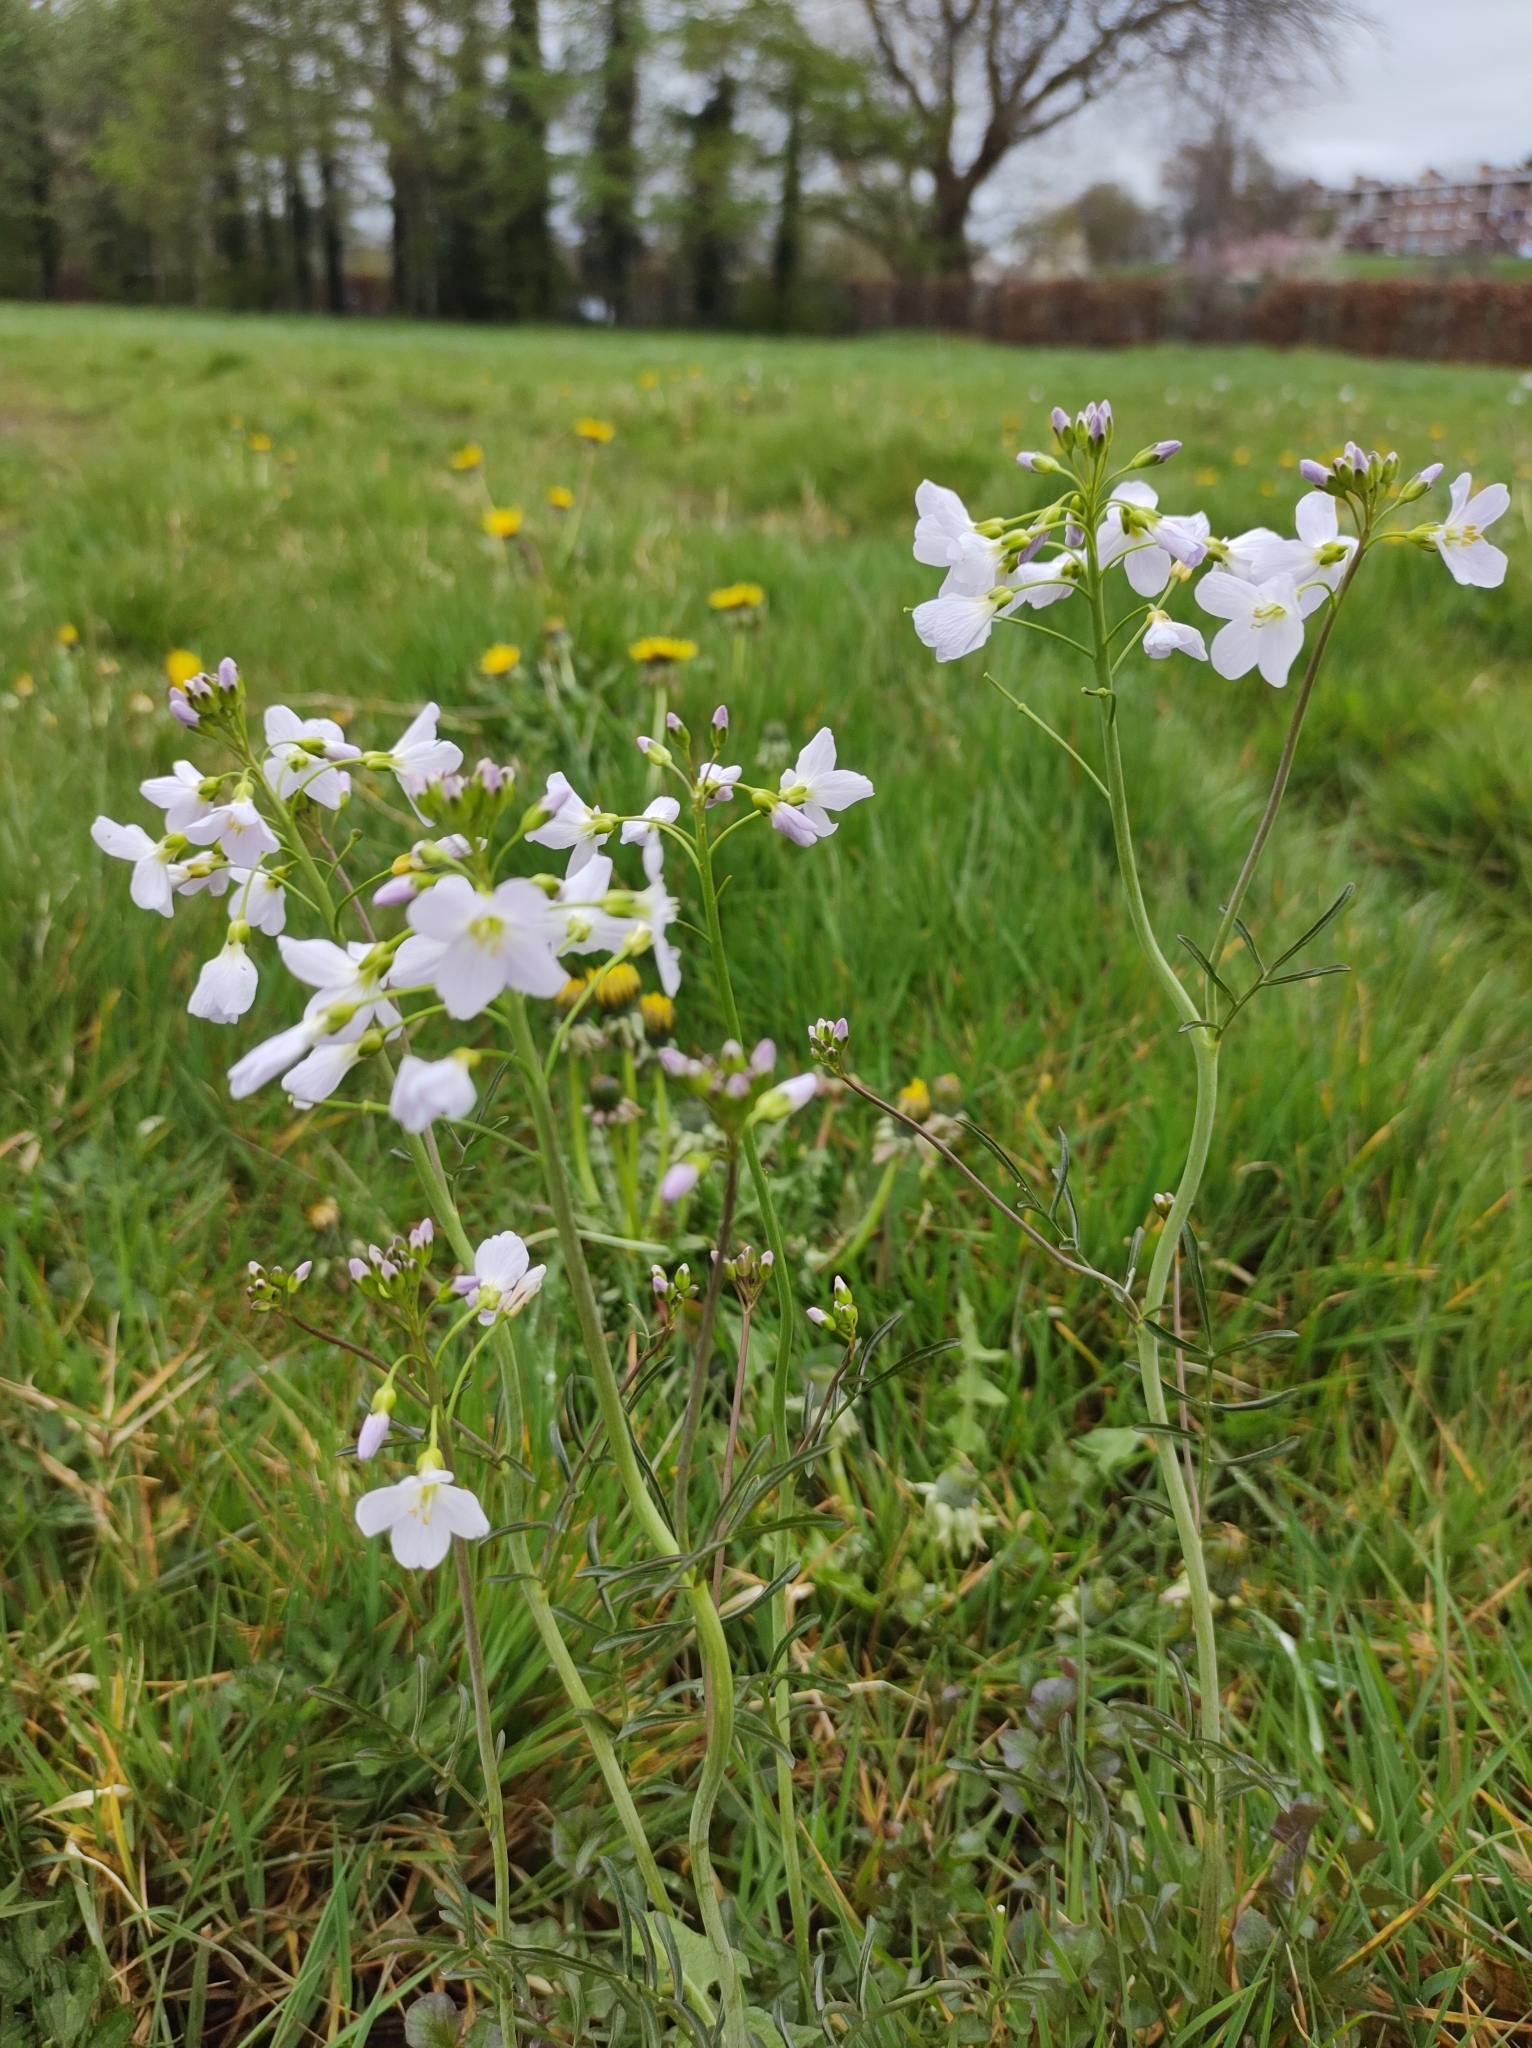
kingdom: Plantae
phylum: Tracheophyta
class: Magnoliopsida
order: Brassicales
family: Brassicaceae
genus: Cardamine
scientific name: Cardamine pratensis
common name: Cuckoo flower
